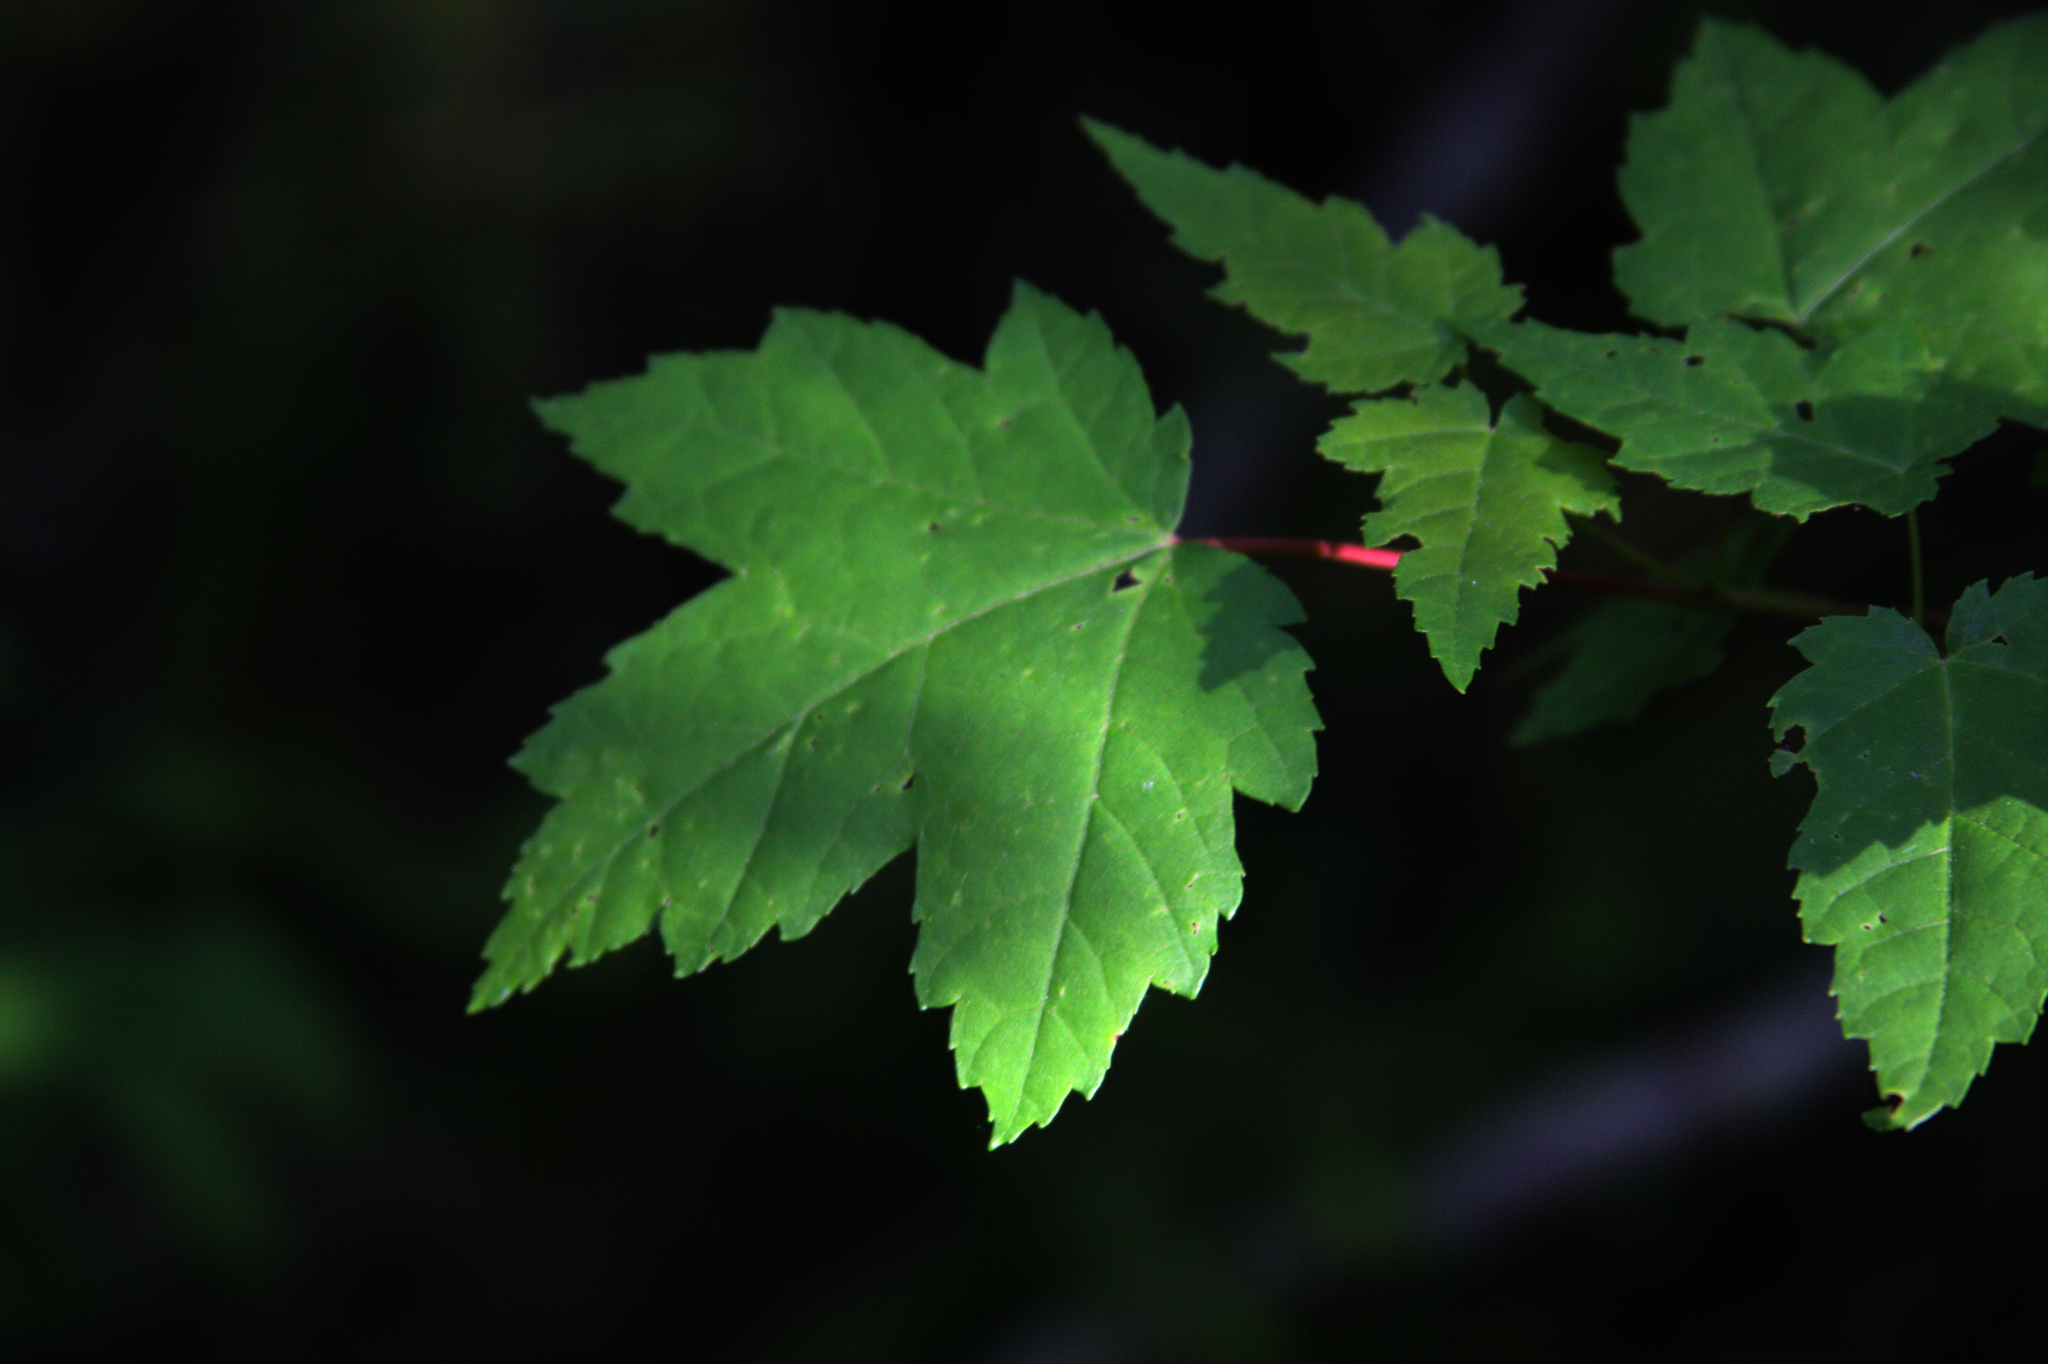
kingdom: Plantae
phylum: Tracheophyta
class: Magnoliopsida
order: Sapindales
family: Sapindaceae
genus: Acer
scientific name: Acer rubrum
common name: Red maple
